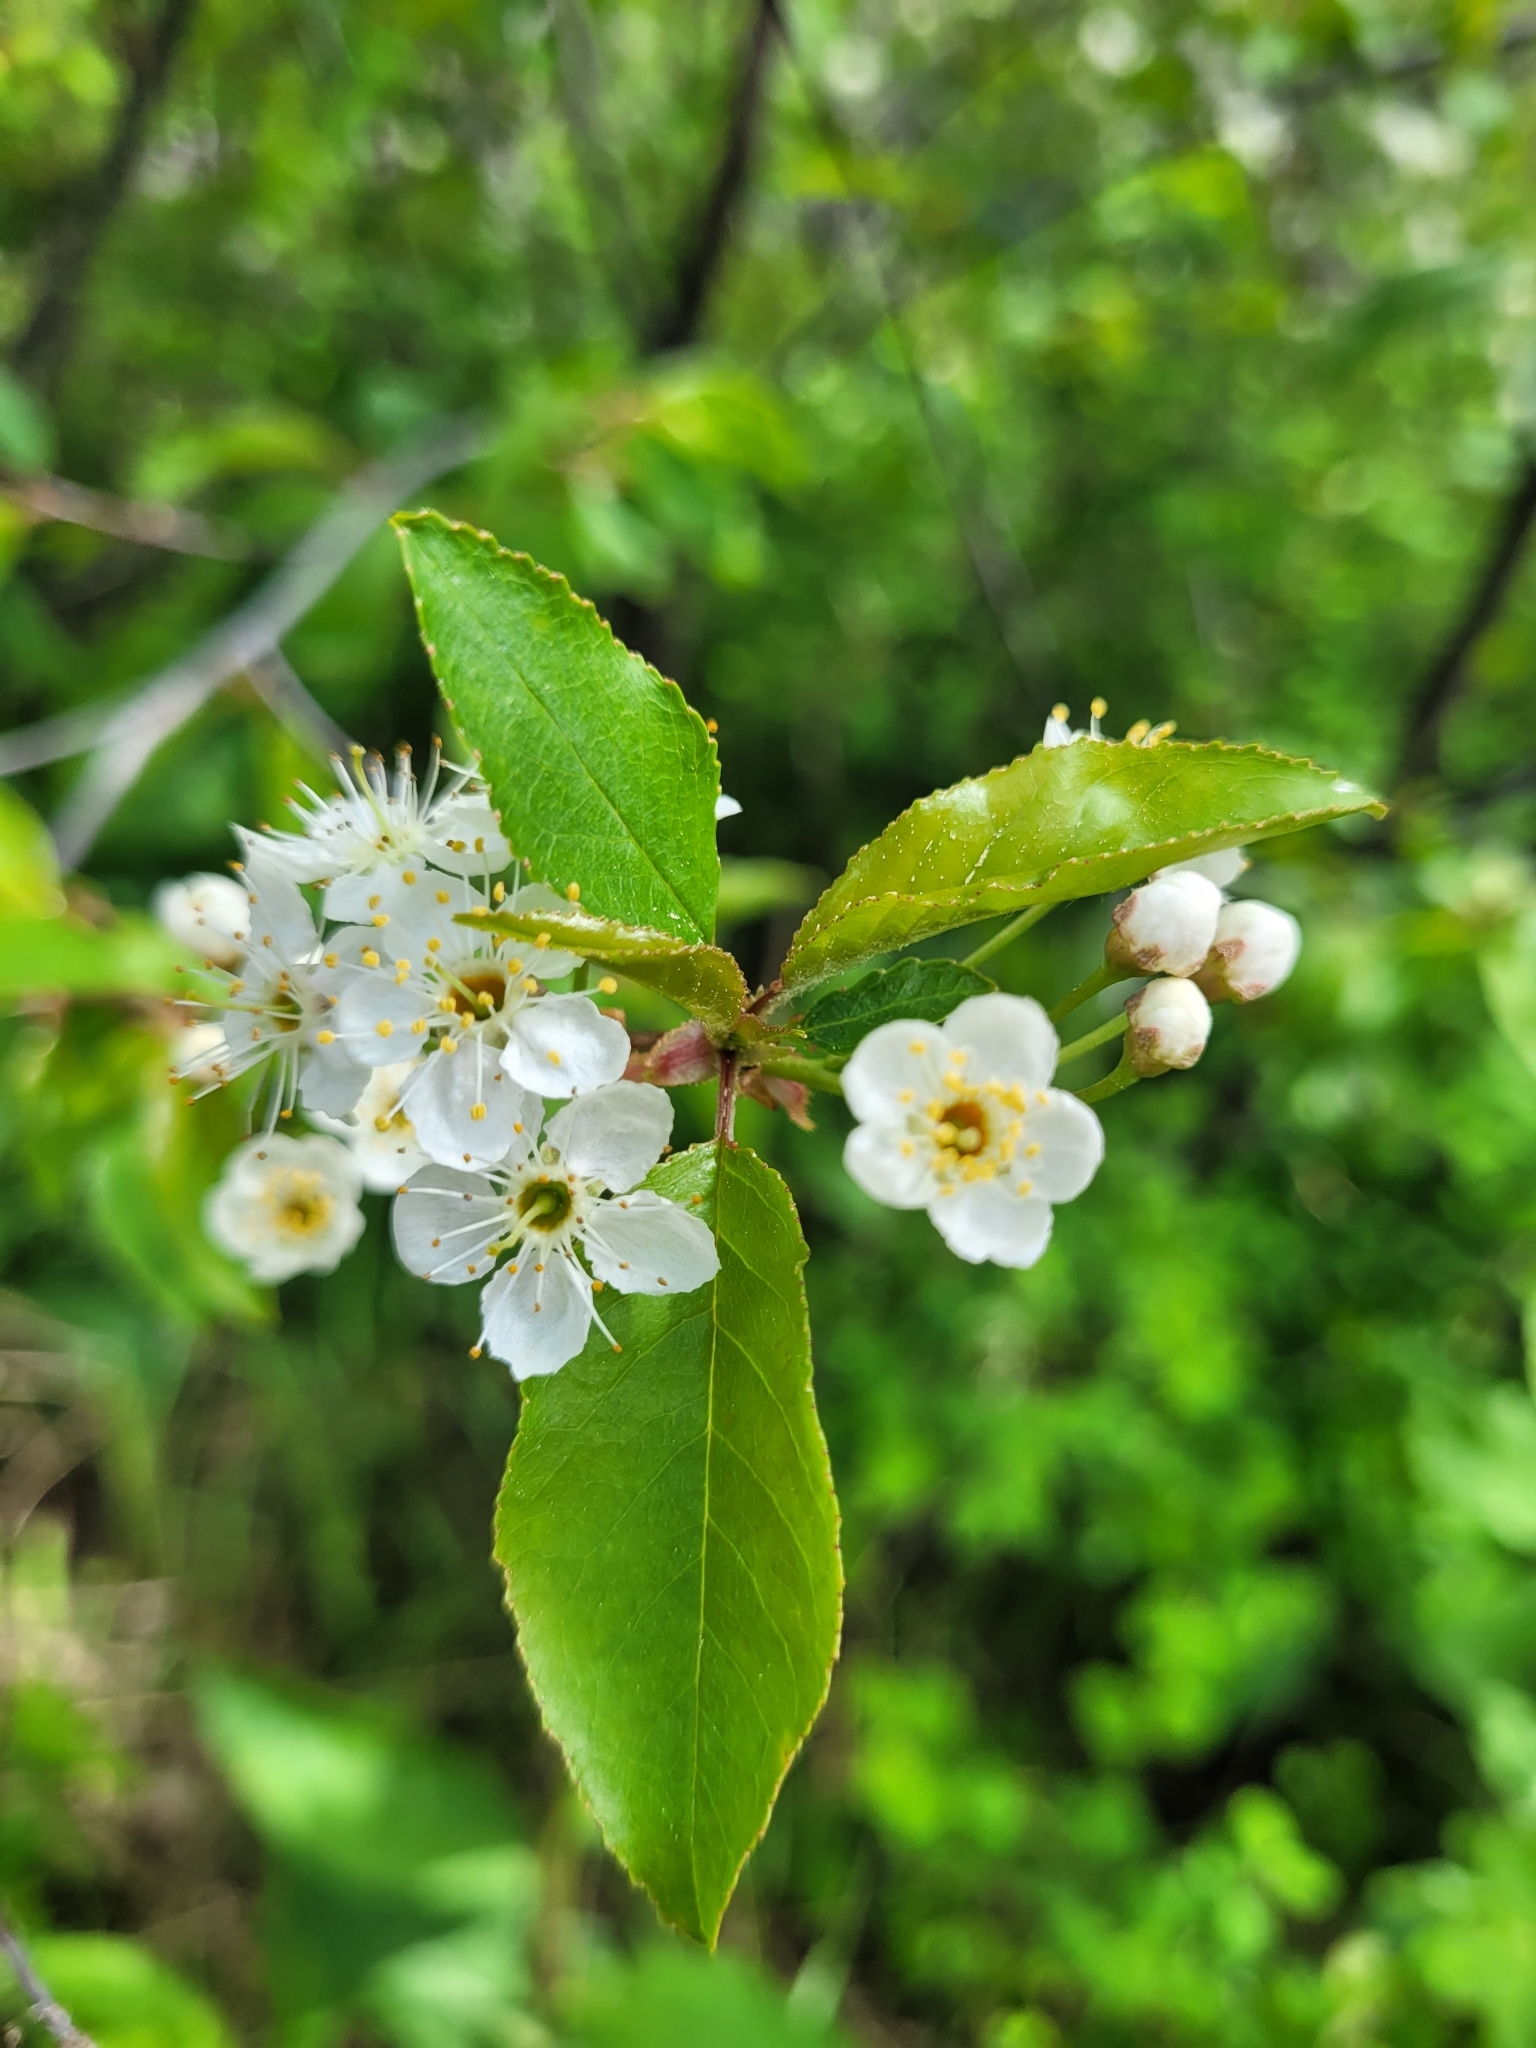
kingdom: Plantae
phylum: Tracheophyta
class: Magnoliopsida
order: Rosales
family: Rosaceae
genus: Prunus
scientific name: Prunus pensylvanica
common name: Pin cherry
